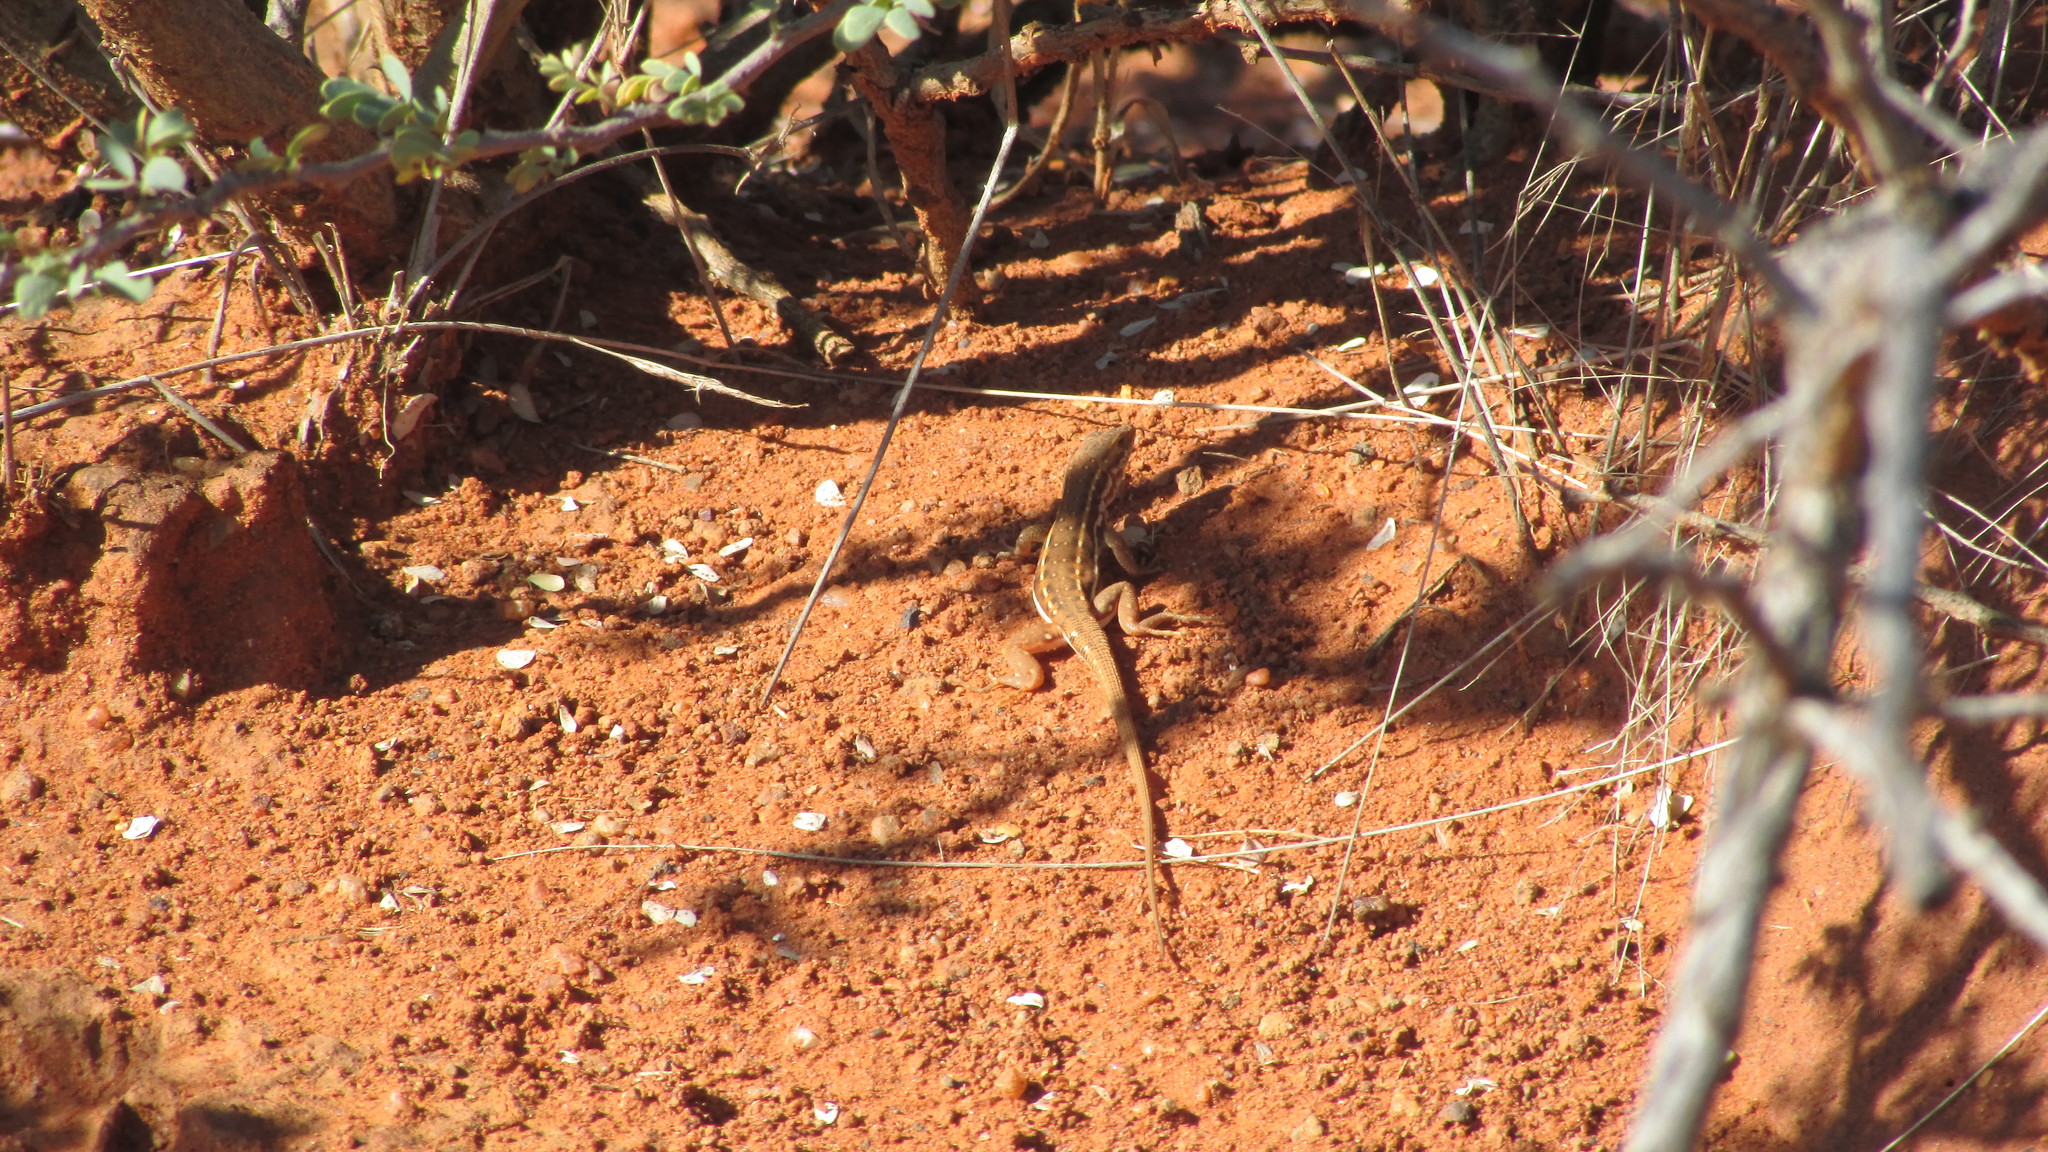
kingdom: Animalia
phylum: Chordata
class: Squamata
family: Lacertidae
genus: Pedioplanis
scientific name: Pedioplanis lineoocellata
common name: Spotted sand lizard
